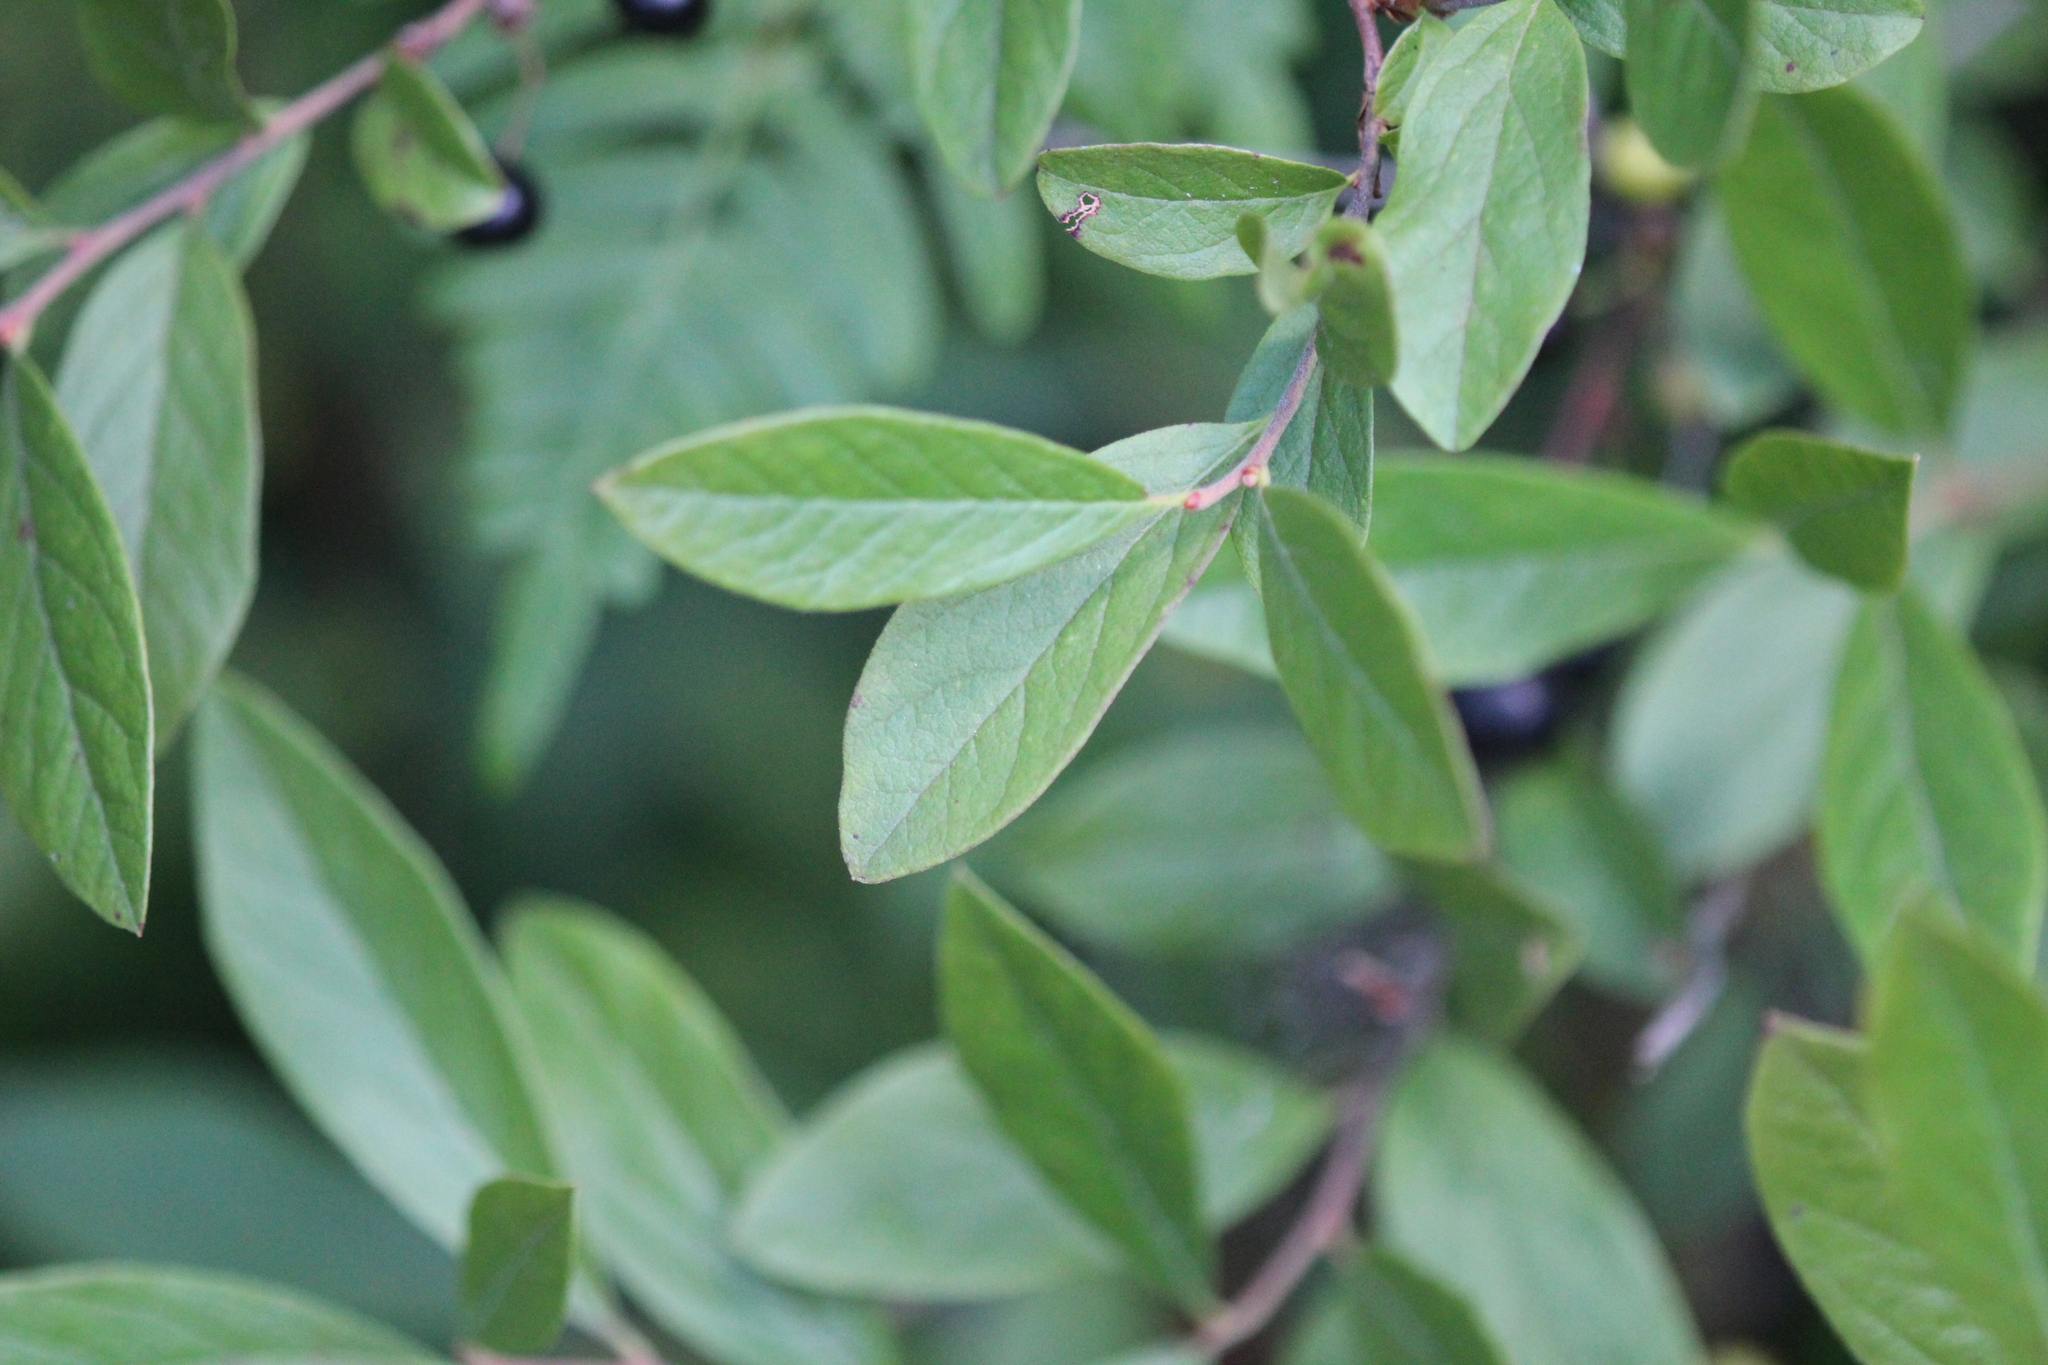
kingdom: Plantae
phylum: Tracheophyta
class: Magnoliopsida
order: Ericales
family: Ericaceae
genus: Gaylussacia
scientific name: Gaylussacia baccata
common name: Black huckleberry
